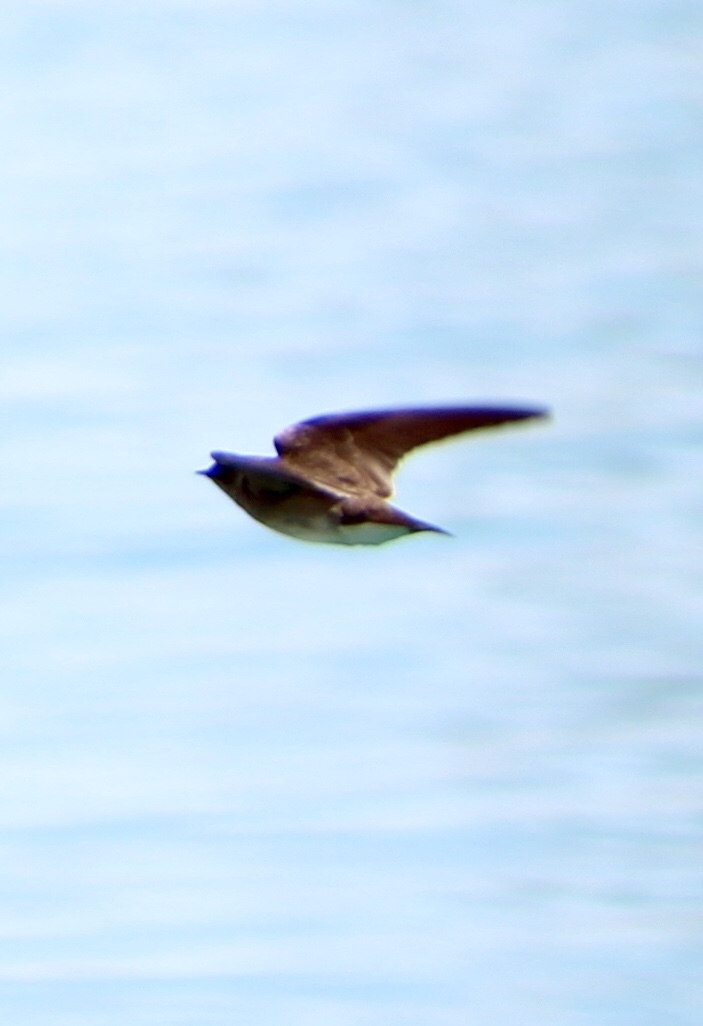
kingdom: Animalia
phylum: Chordata
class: Aves
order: Passeriformes
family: Hirundinidae
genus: Stelgidopteryx
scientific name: Stelgidopteryx serripennis
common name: Northern rough-winged swallow
